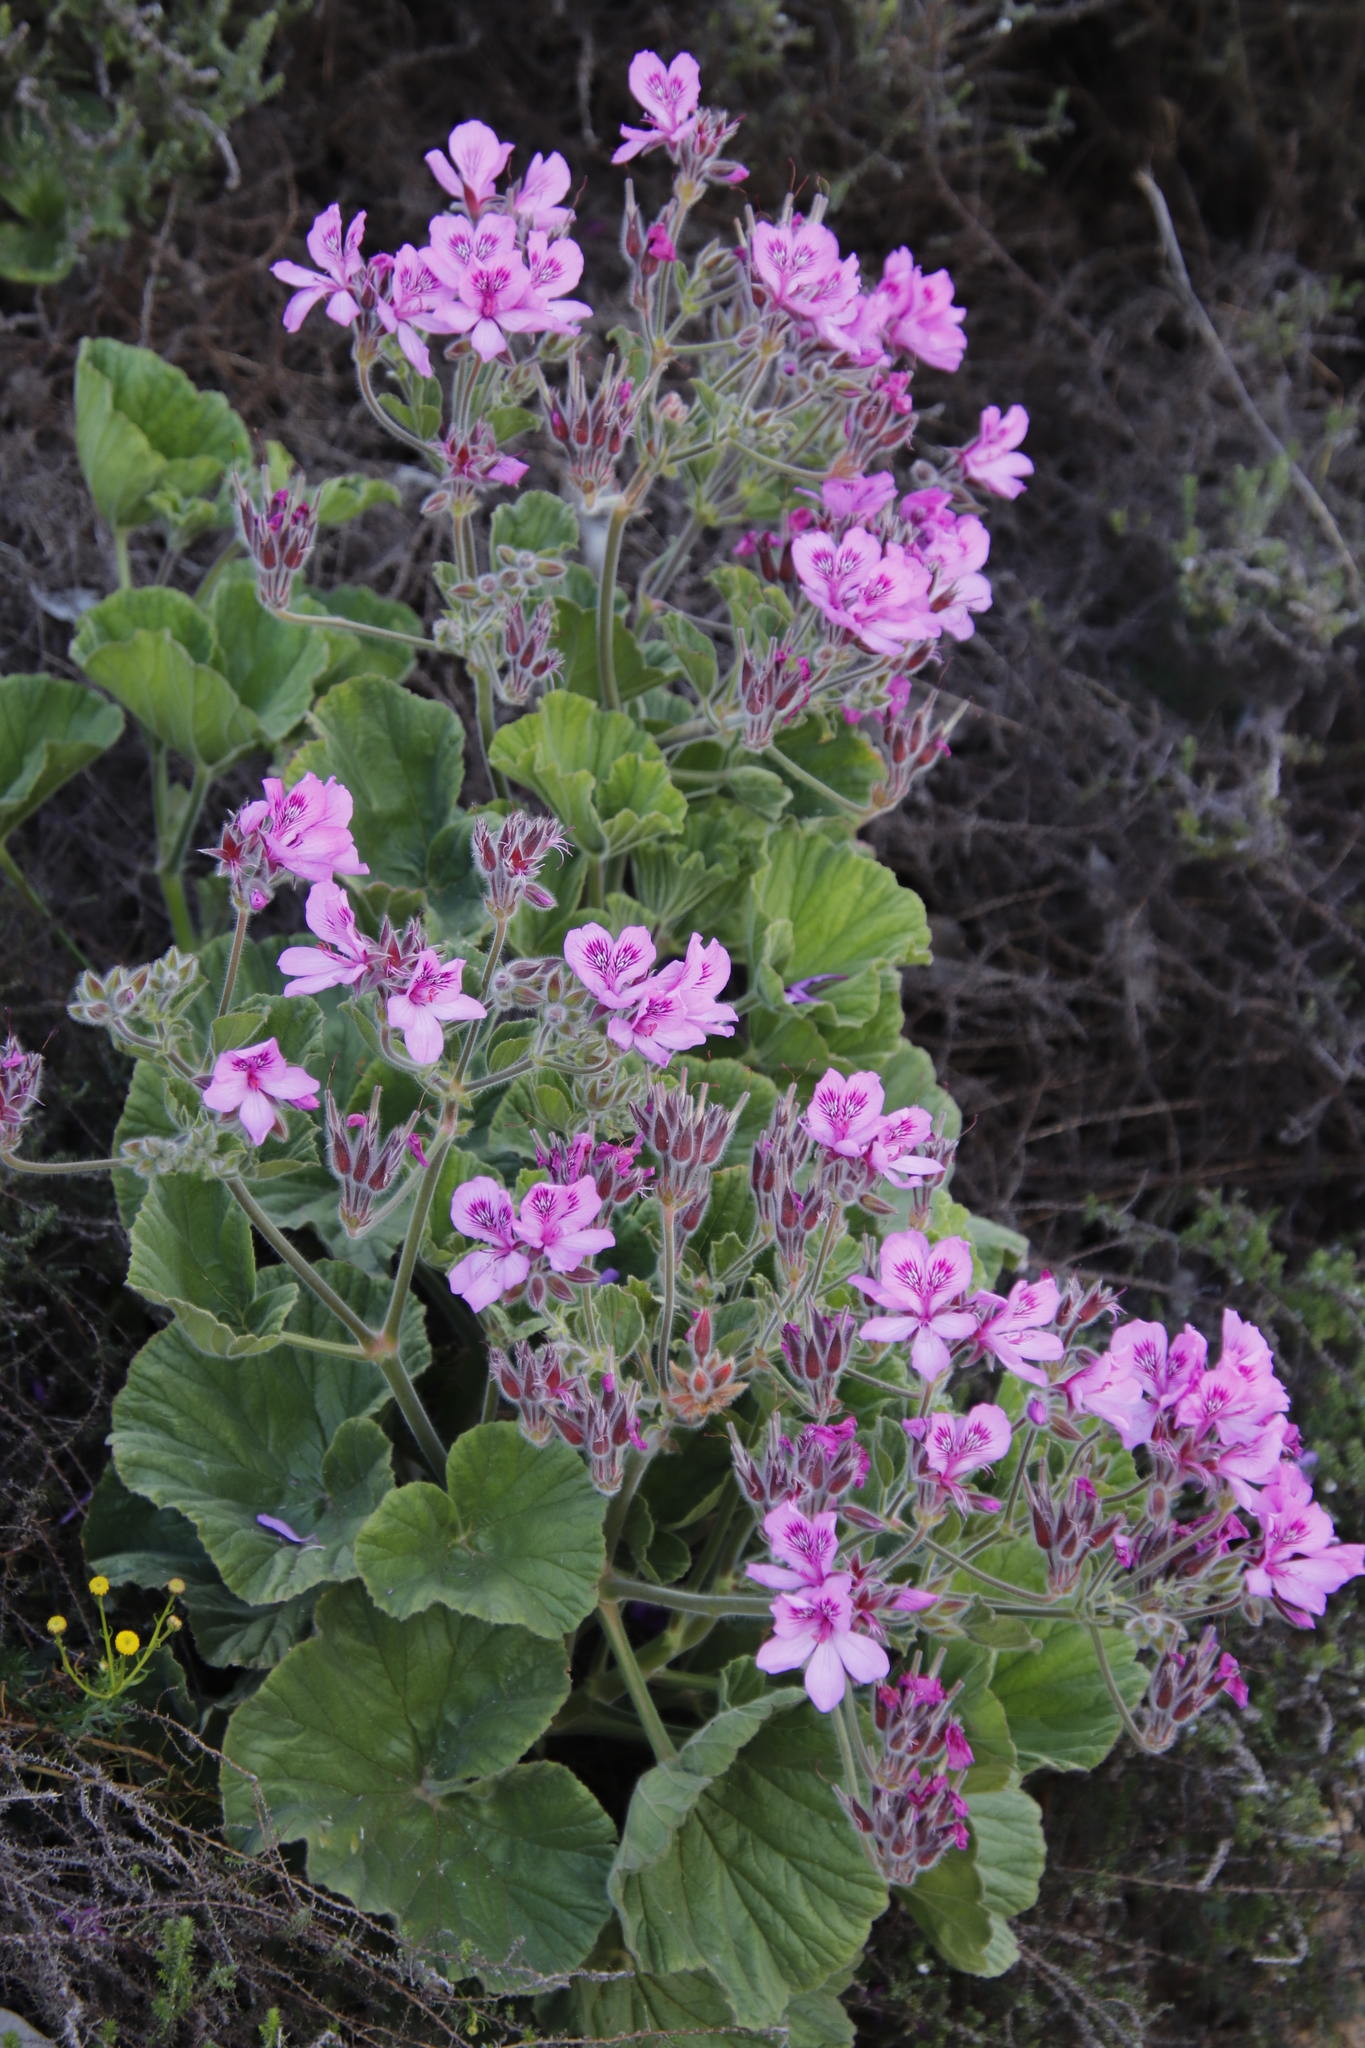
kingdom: Plantae
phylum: Tracheophyta
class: Magnoliopsida
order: Geraniales
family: Geraniaceae
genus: Pelargonium
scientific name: Pelargonium cucullatum
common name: Tree pelargonium
